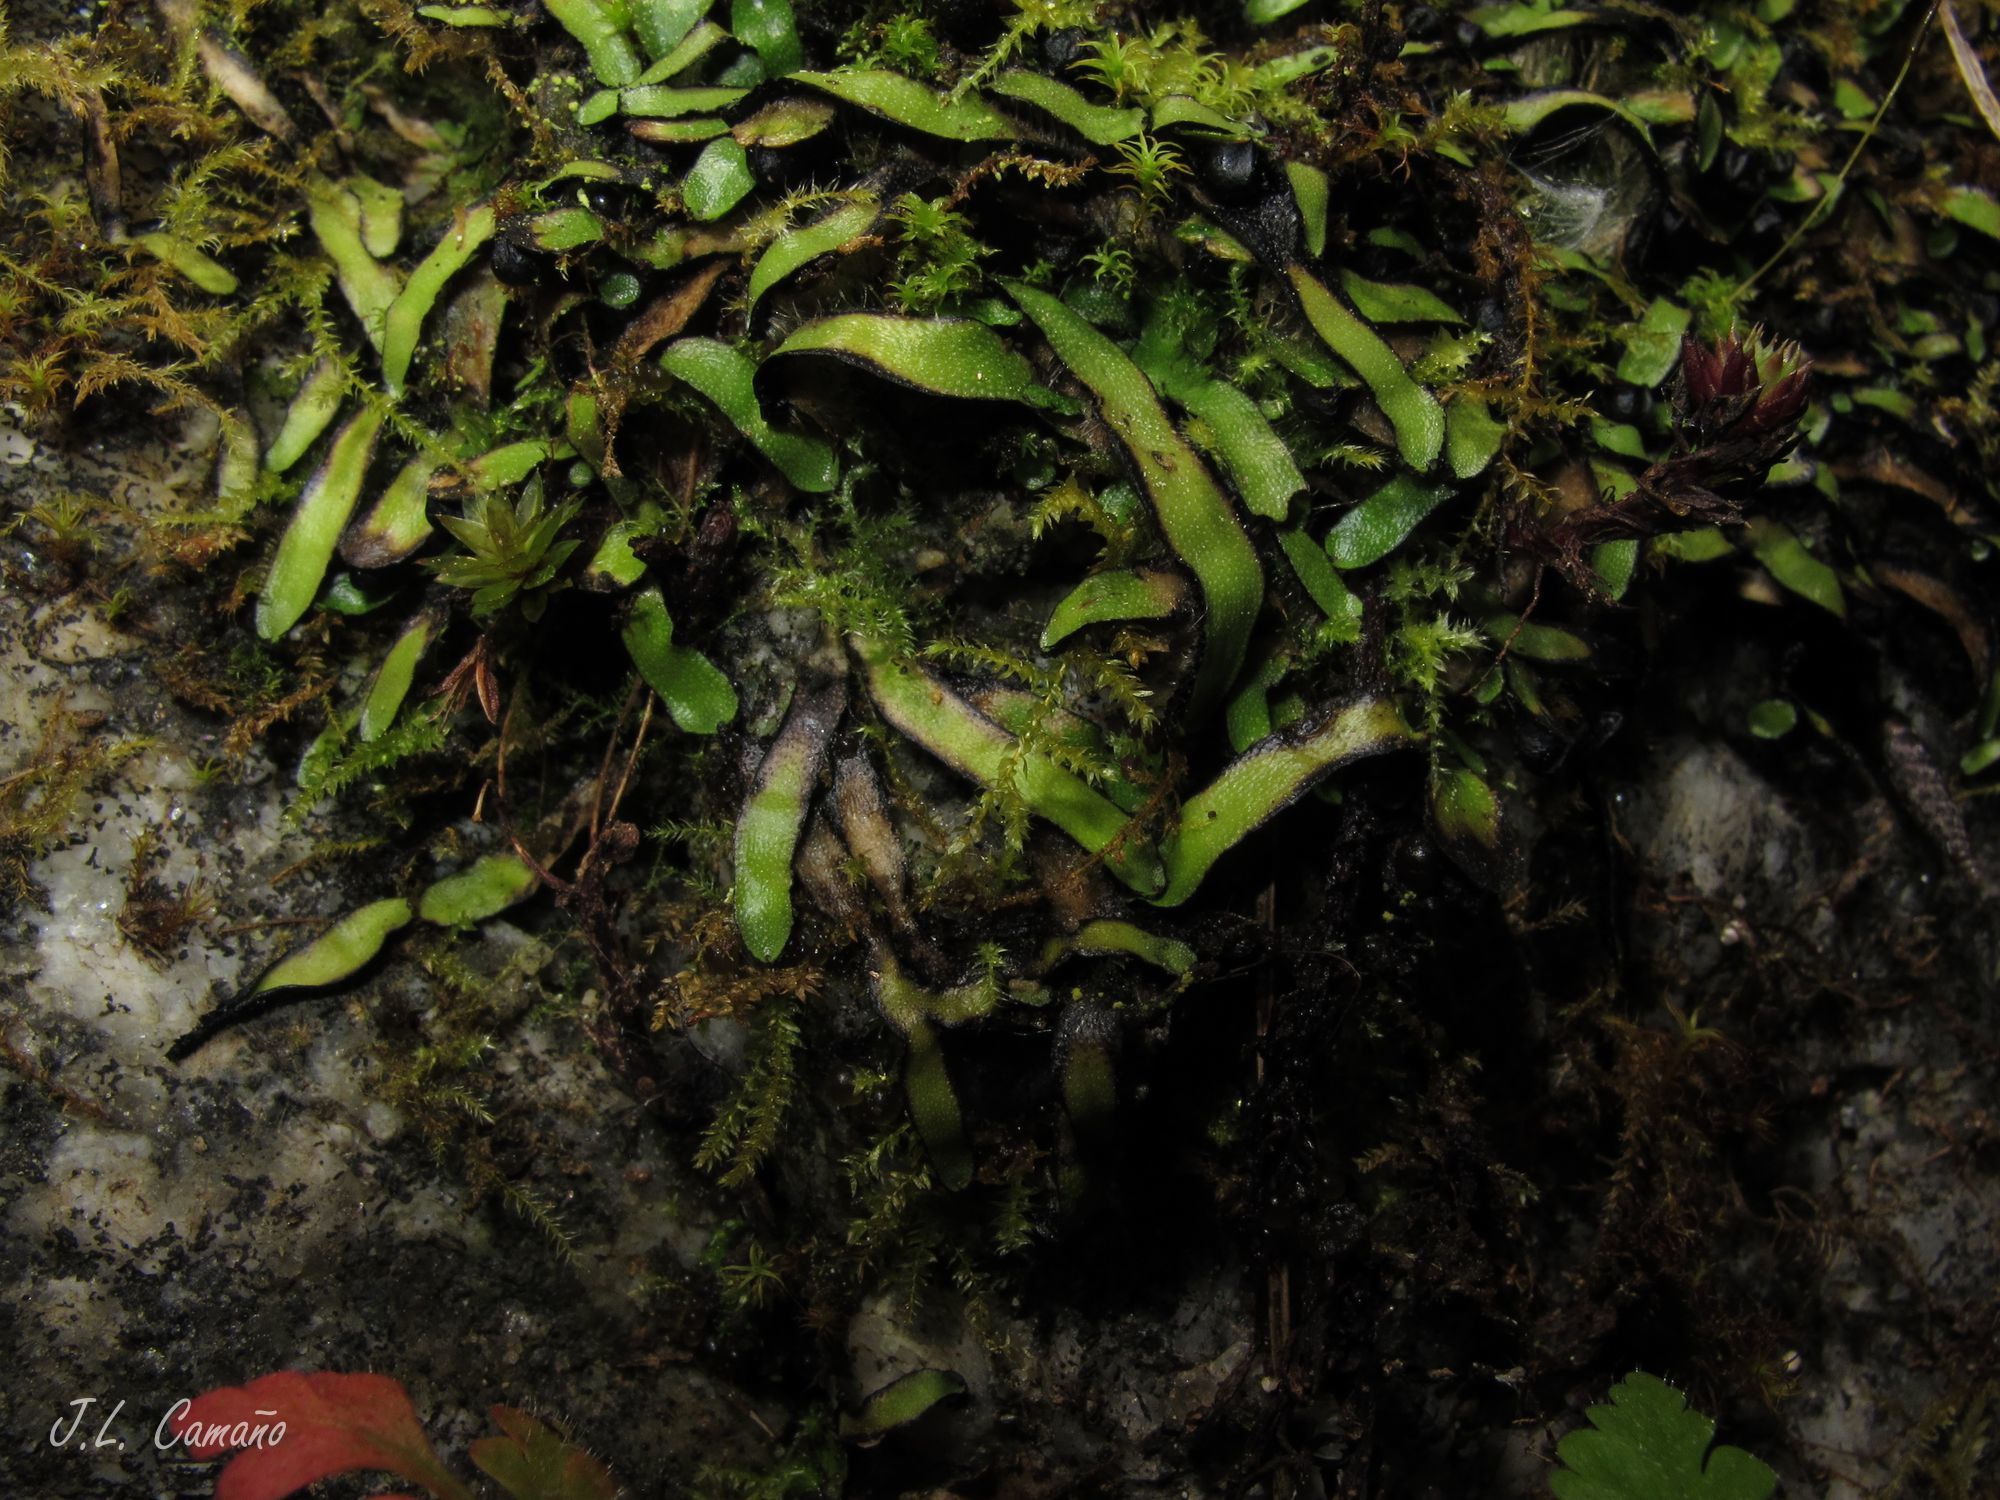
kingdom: Plantae
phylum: Marchantiophyta
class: Marchantiopsida
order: Marchantiales
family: Targioniaceae
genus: Targionia
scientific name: Targionia hypophylla
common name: Orobus-seed liverwort
